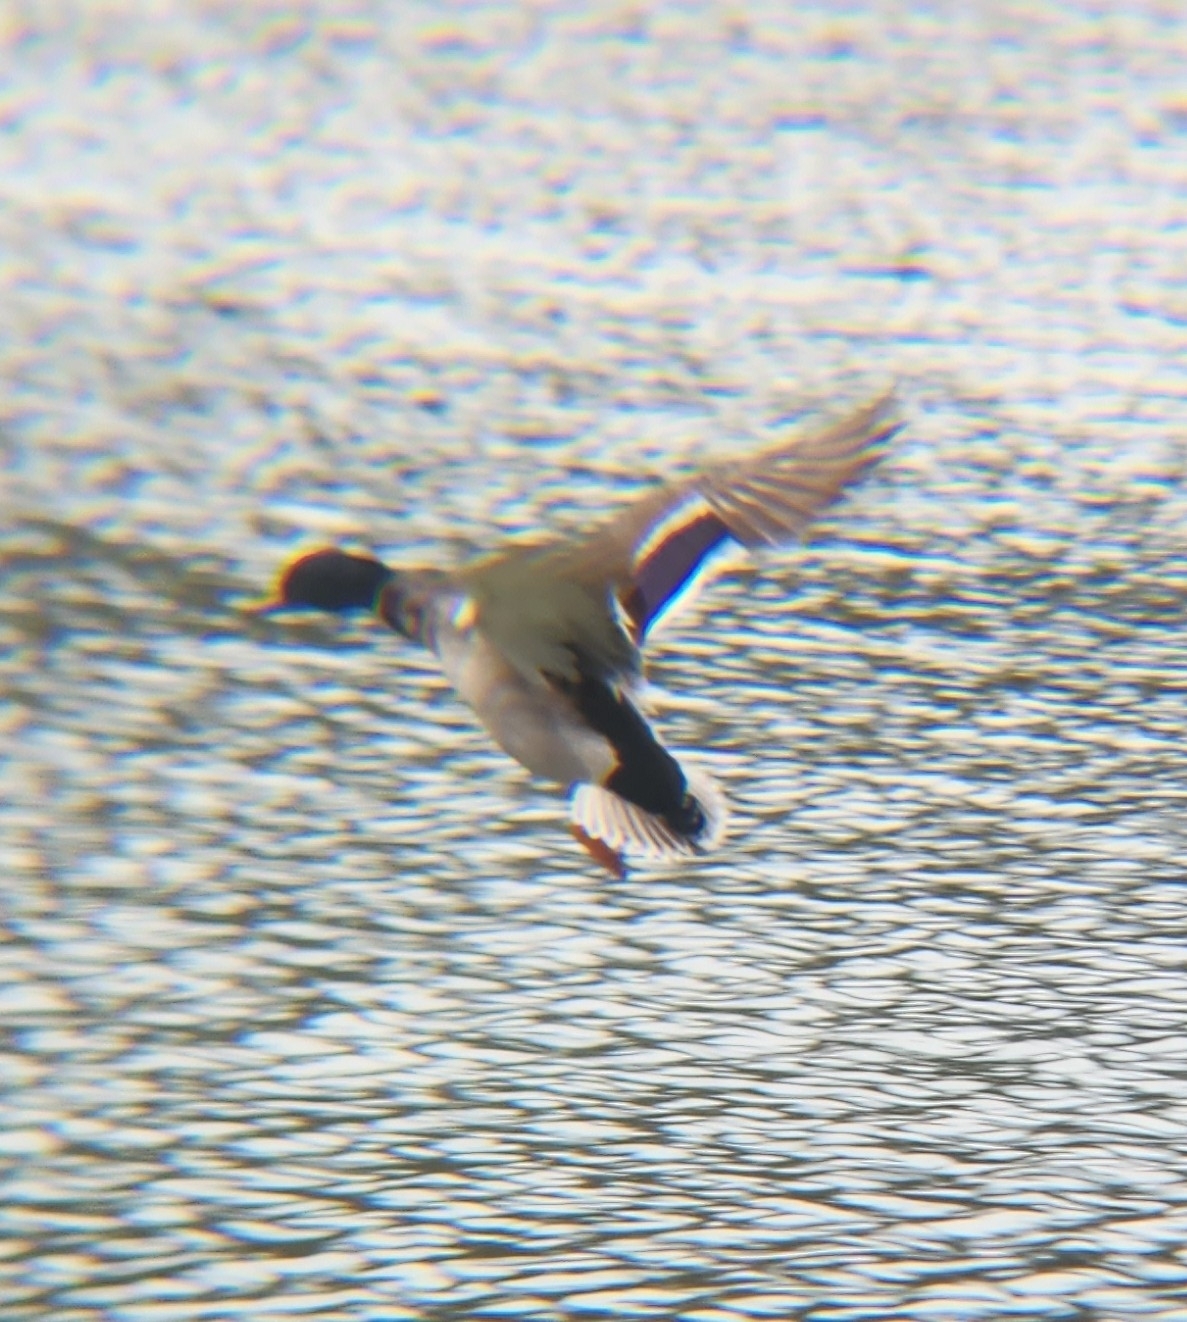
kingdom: Animalia
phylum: Chordata
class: Aves
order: Anseriformes
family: Anatidae
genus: Anas
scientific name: Anas platyrhynchos
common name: Mallard
